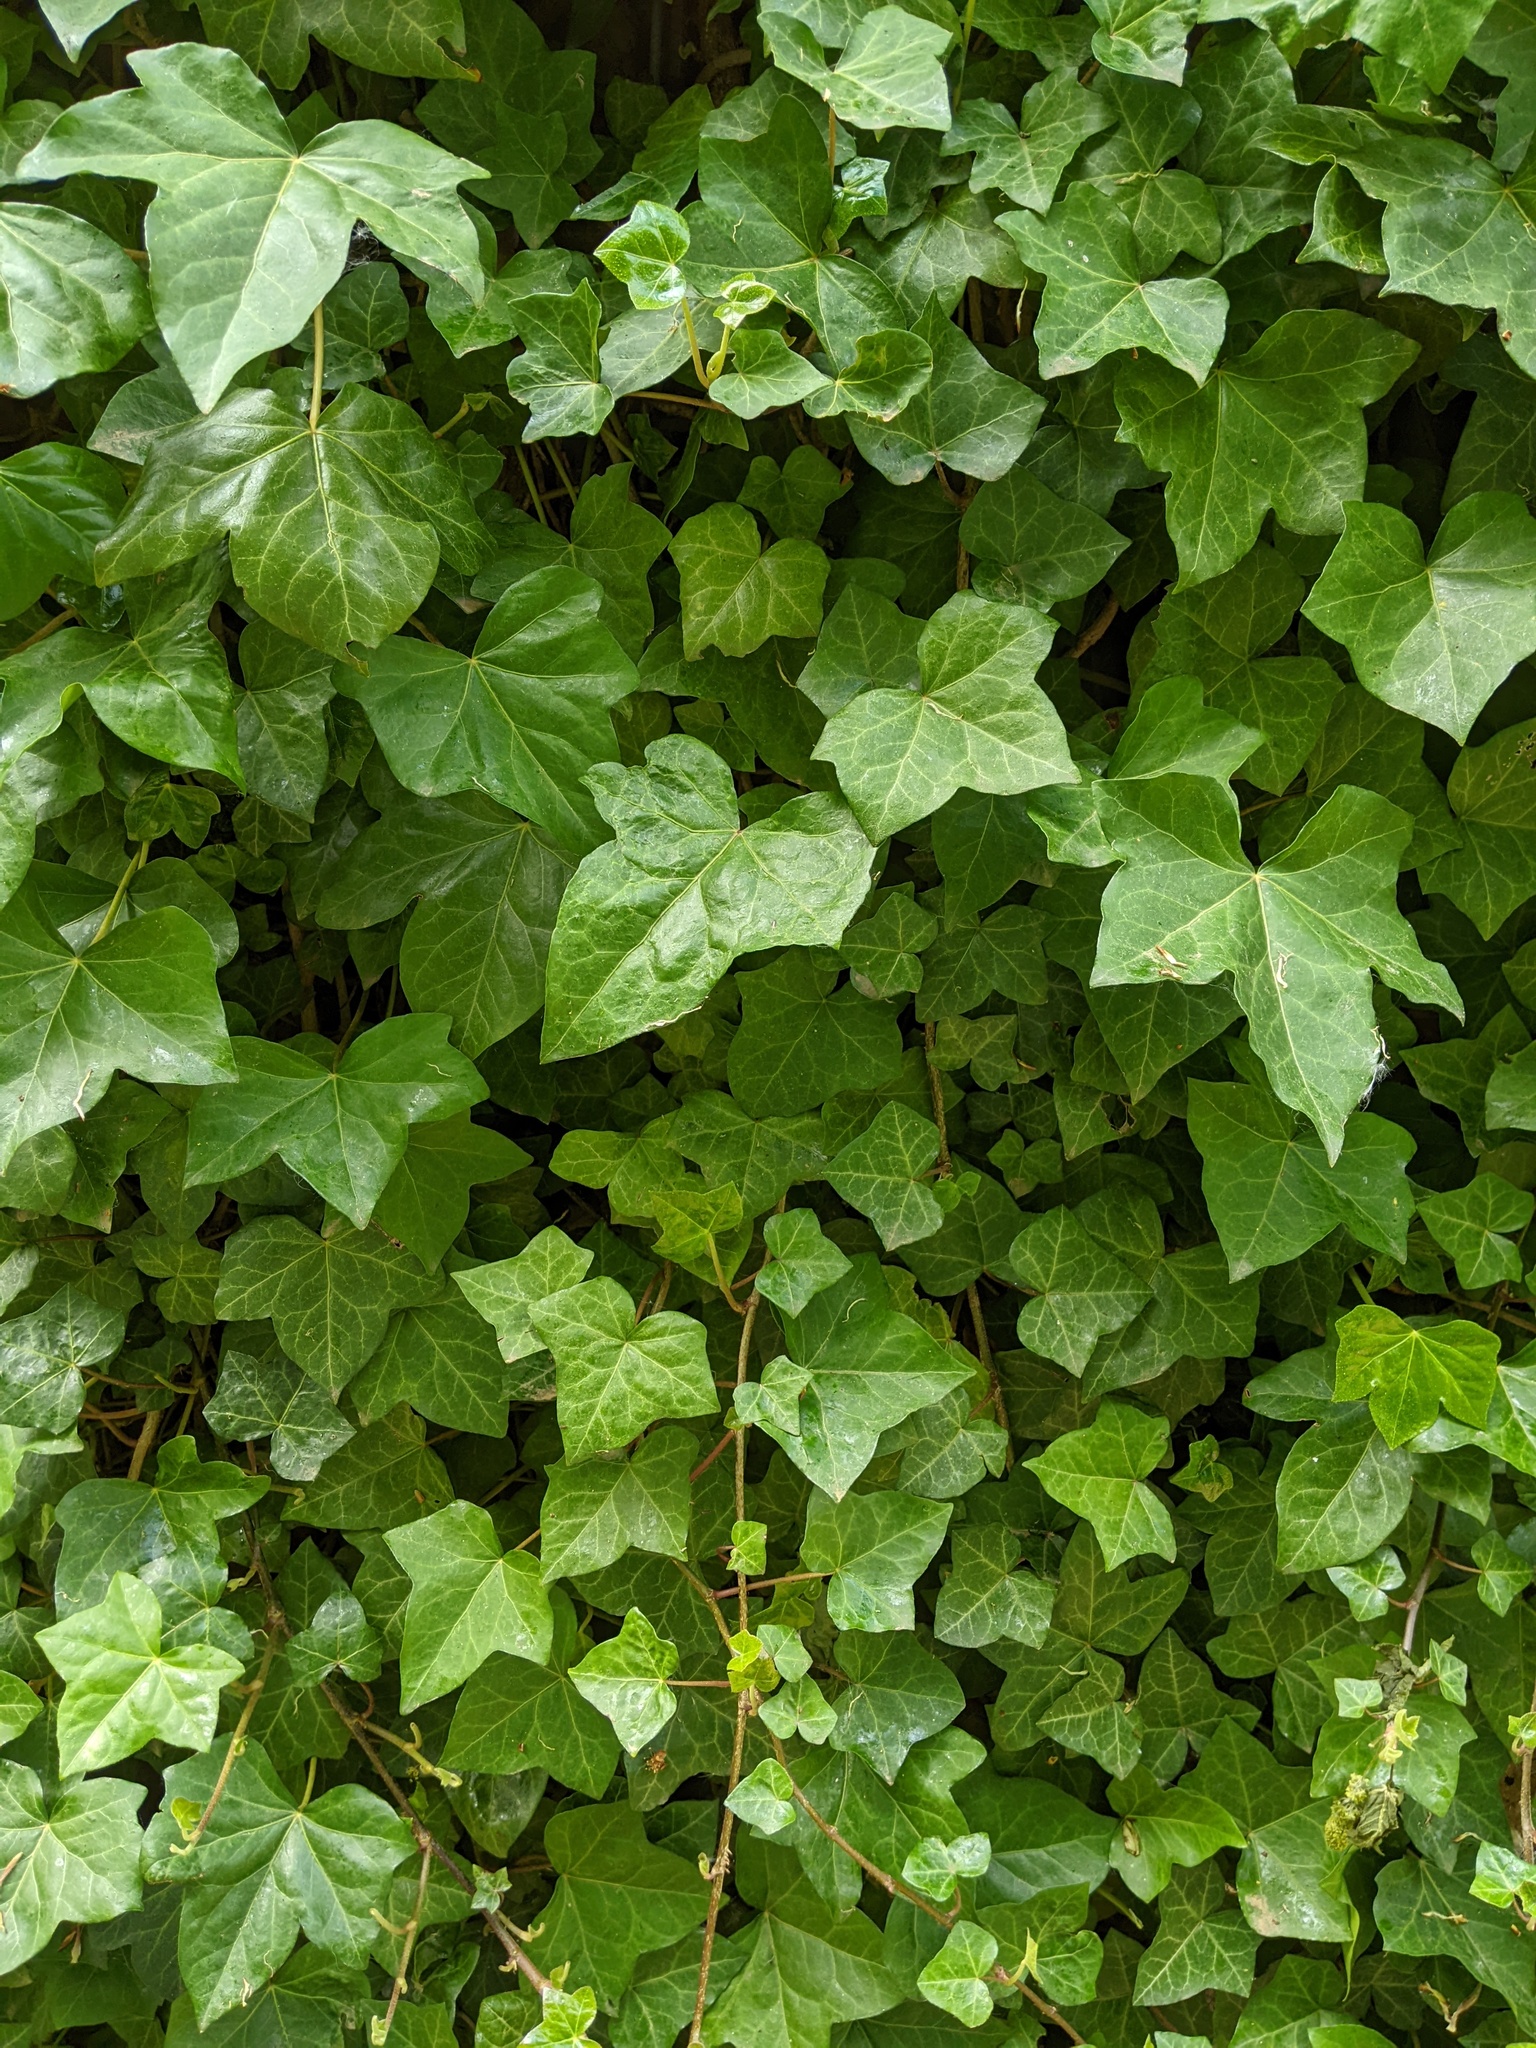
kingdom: Plantae
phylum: Tracheophyta
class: Magnoliopsida
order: Apiales
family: Araliaceae
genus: Hedera
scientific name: Hedera helix
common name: Ivy
